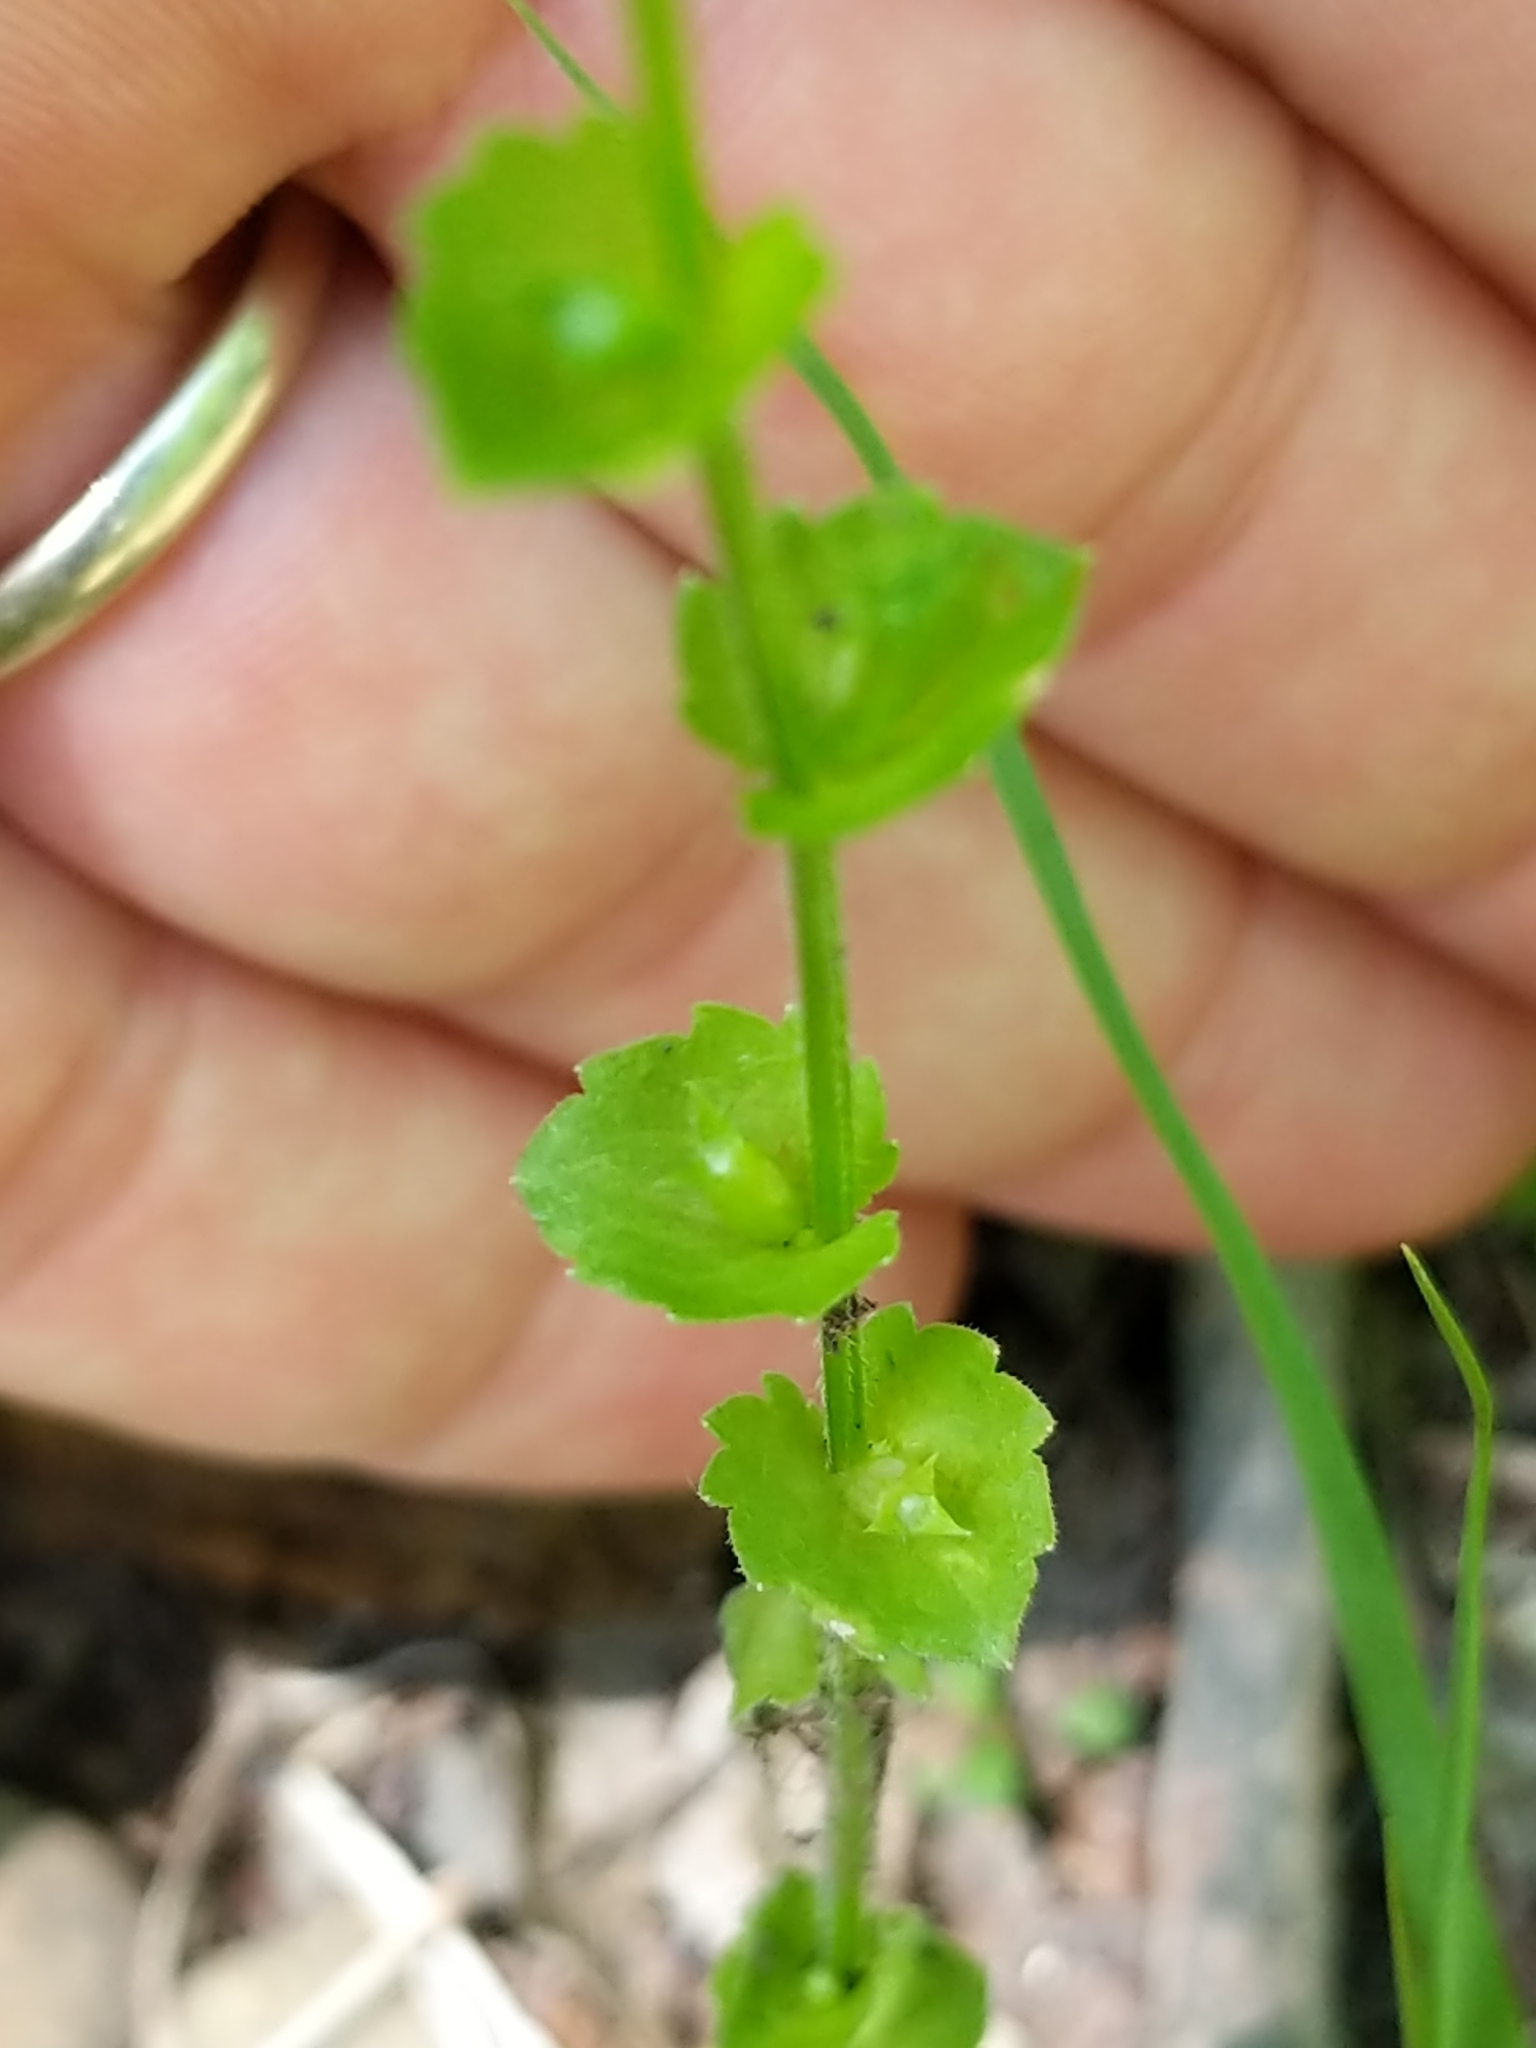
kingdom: Plantae
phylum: Tracheophyta
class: Magnoliopsida
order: Asterales
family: Campanulaceae
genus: Triodanis
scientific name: Triodanis perfoliata
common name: Clasping venus' looking-glass
